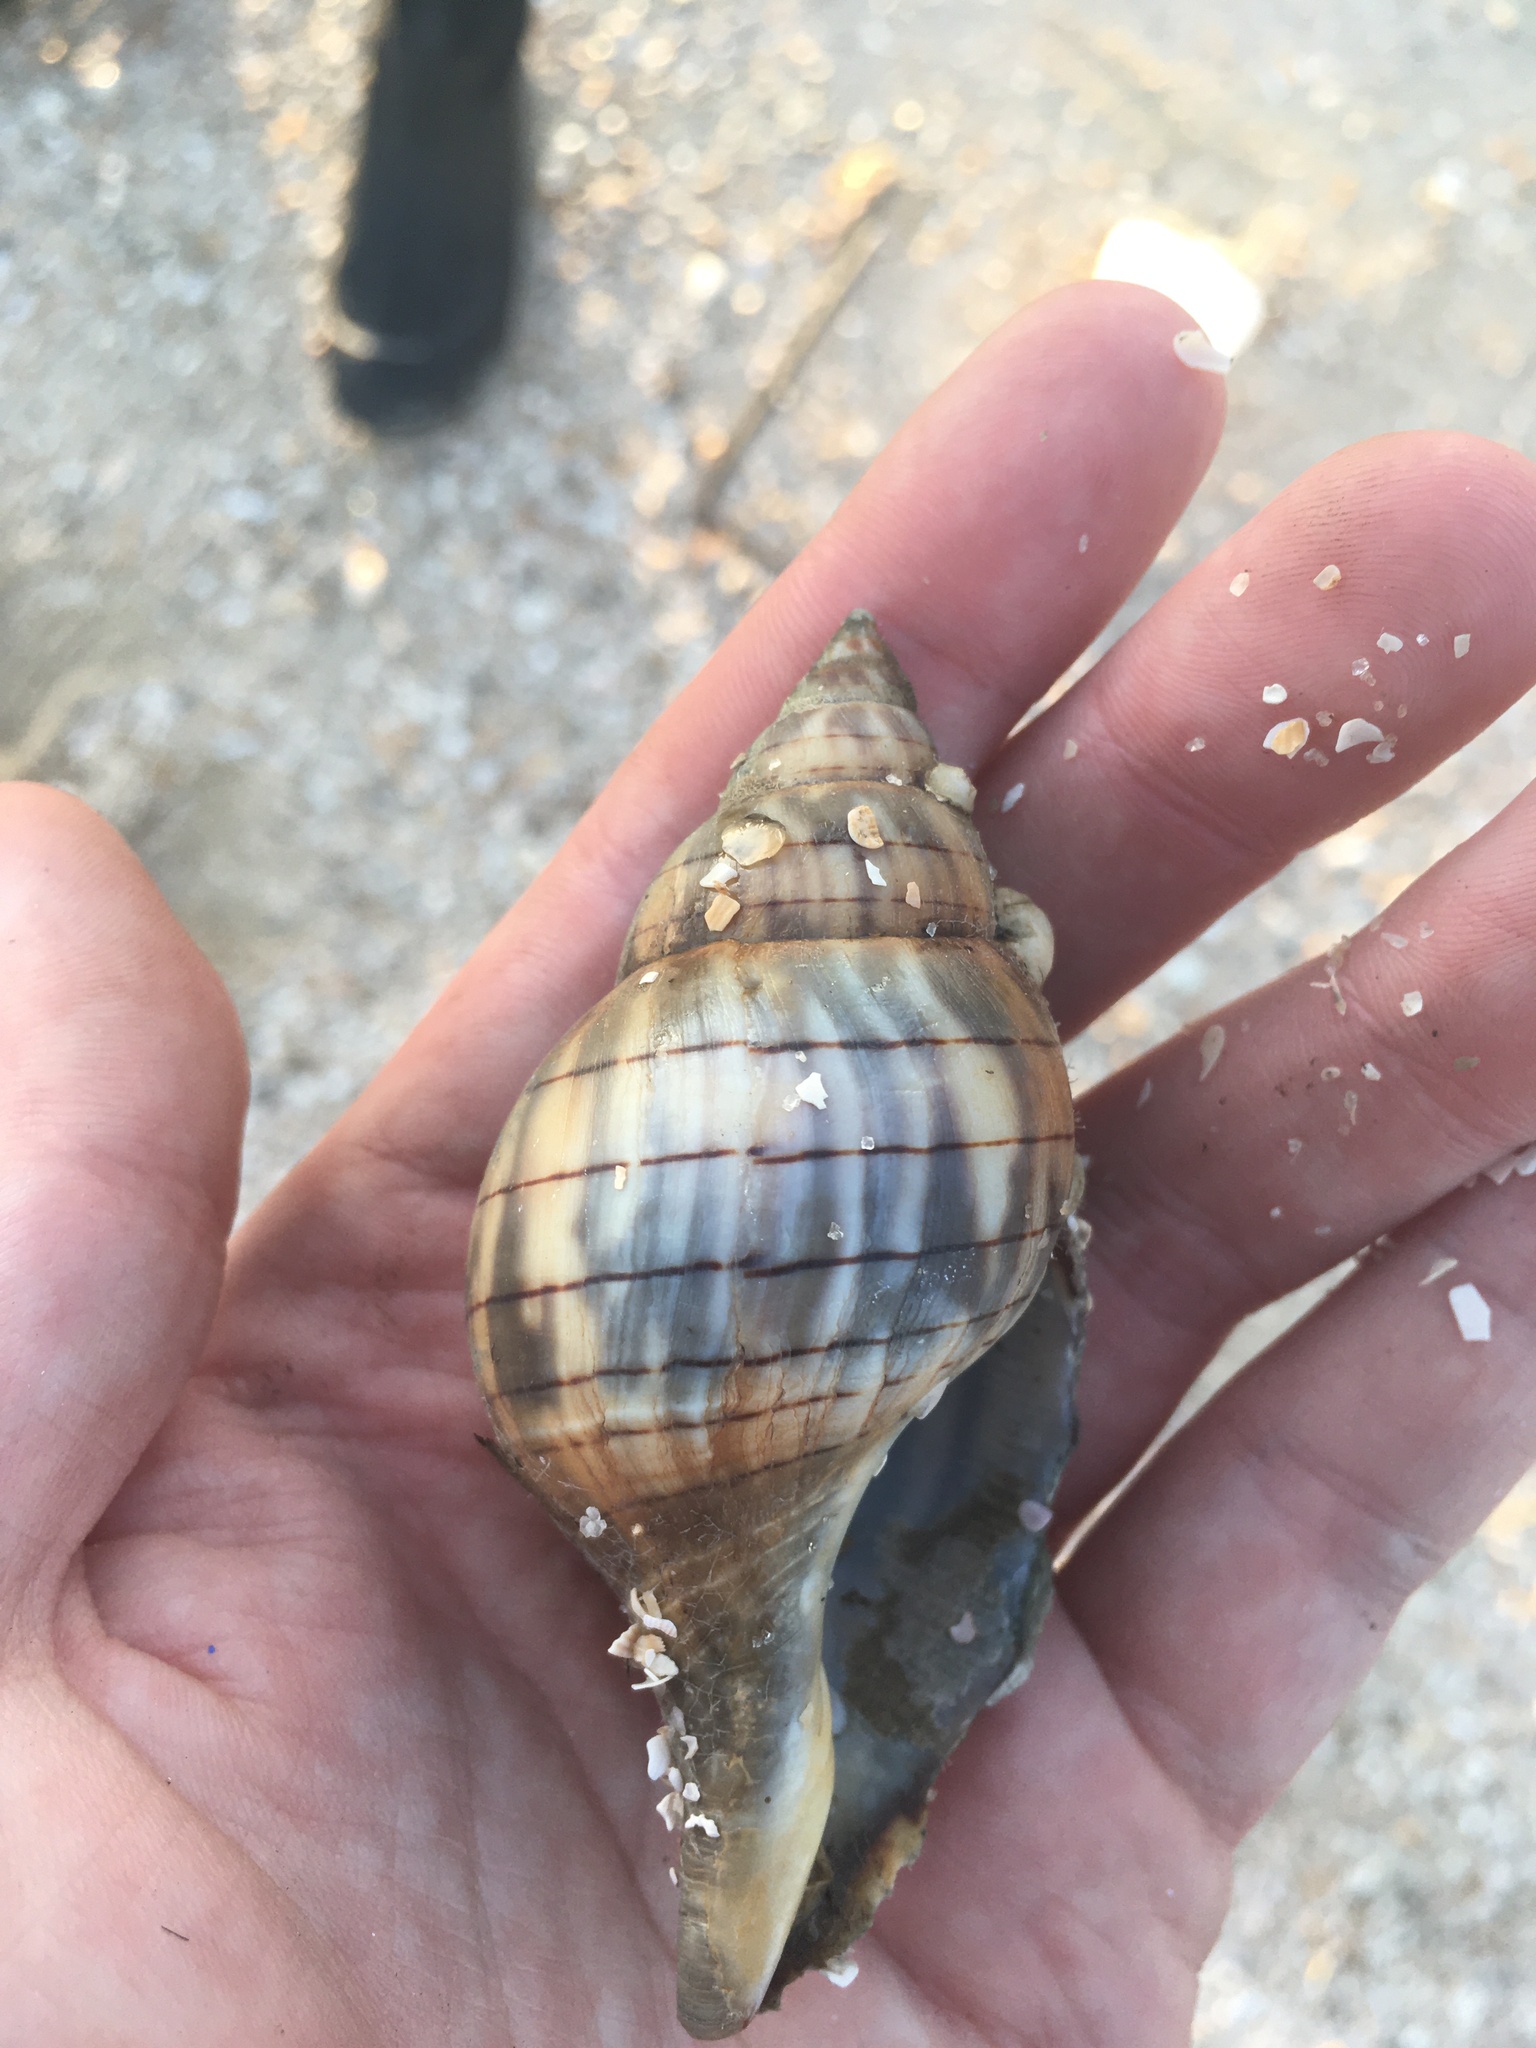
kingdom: Animalia
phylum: Mollusca
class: Gastropoda
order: Neogastropoda
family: Fasciolariidae
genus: Cinctura
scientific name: Cinctura hunteria
